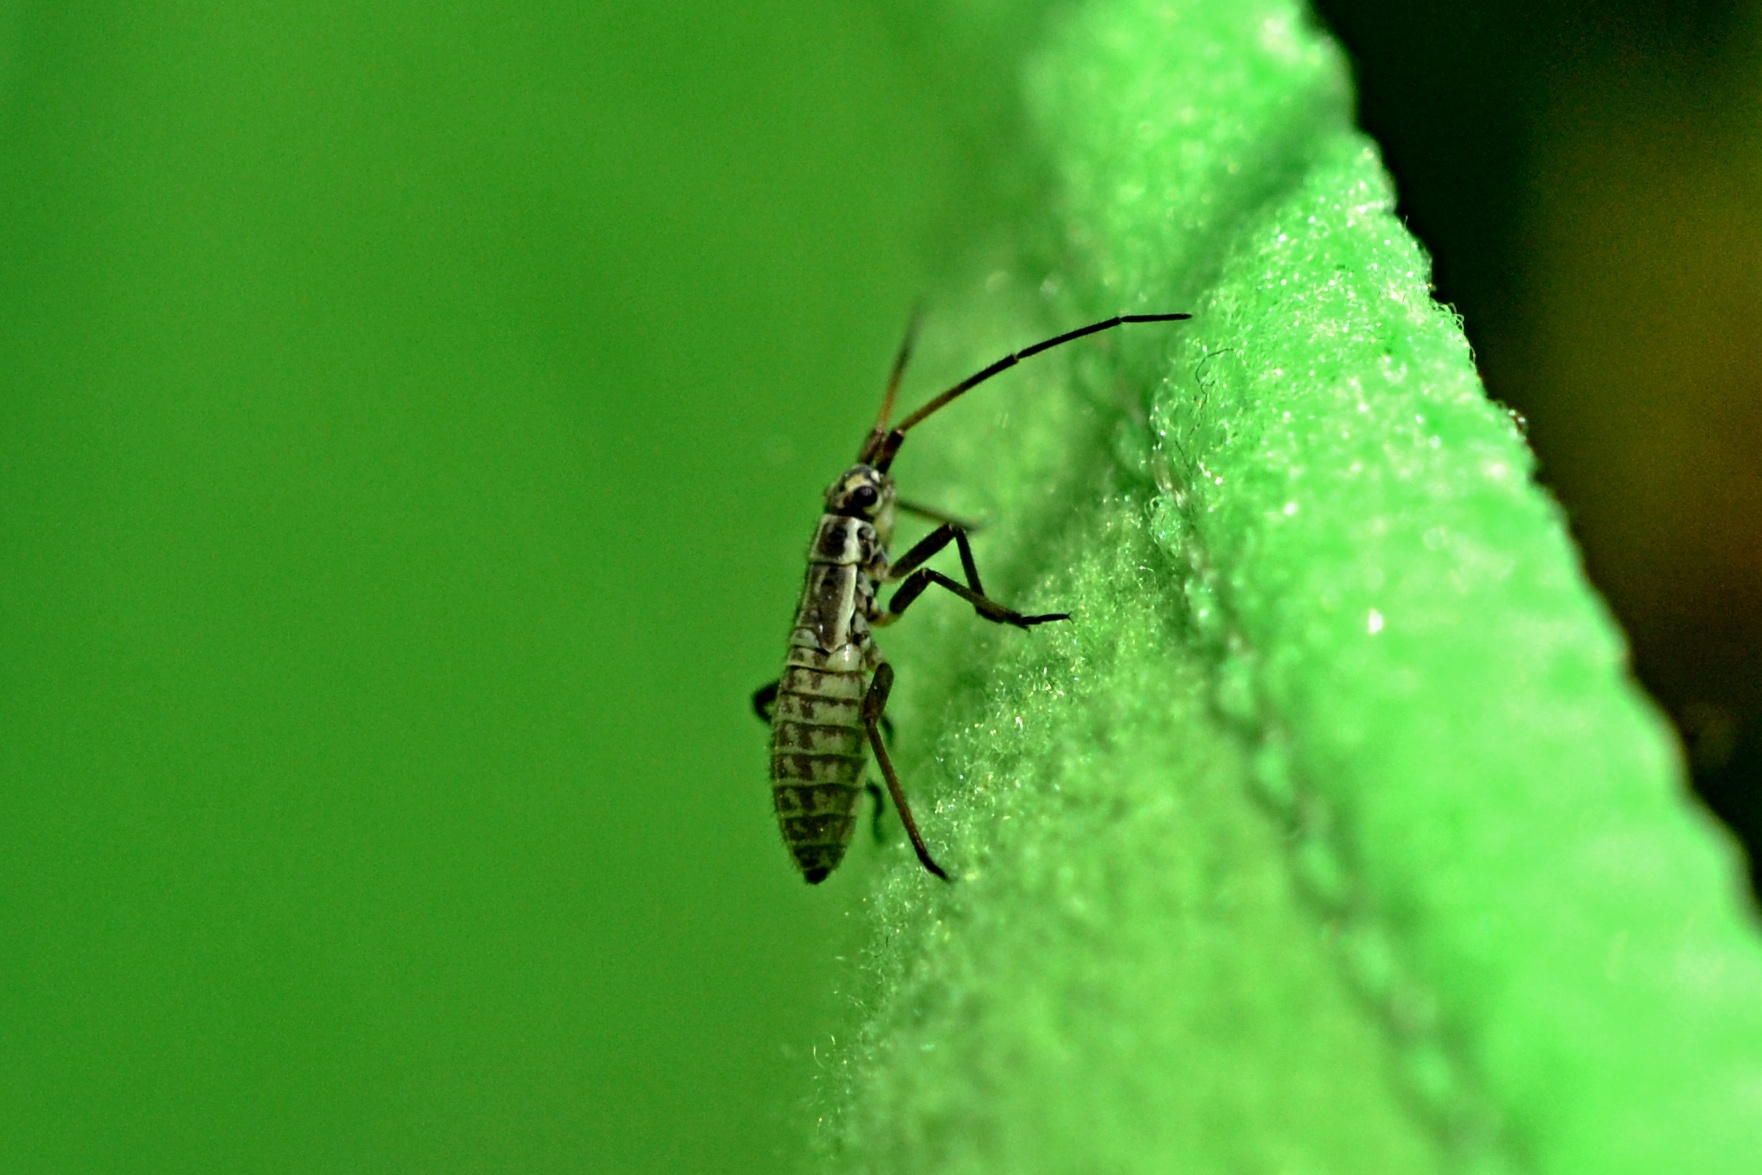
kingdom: Animalia
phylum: Arthropoda
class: Insecta
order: Hemiptera
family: Miridae
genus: Leptopterna
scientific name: Leptopterna dolabrata
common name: Meadow plant bug
